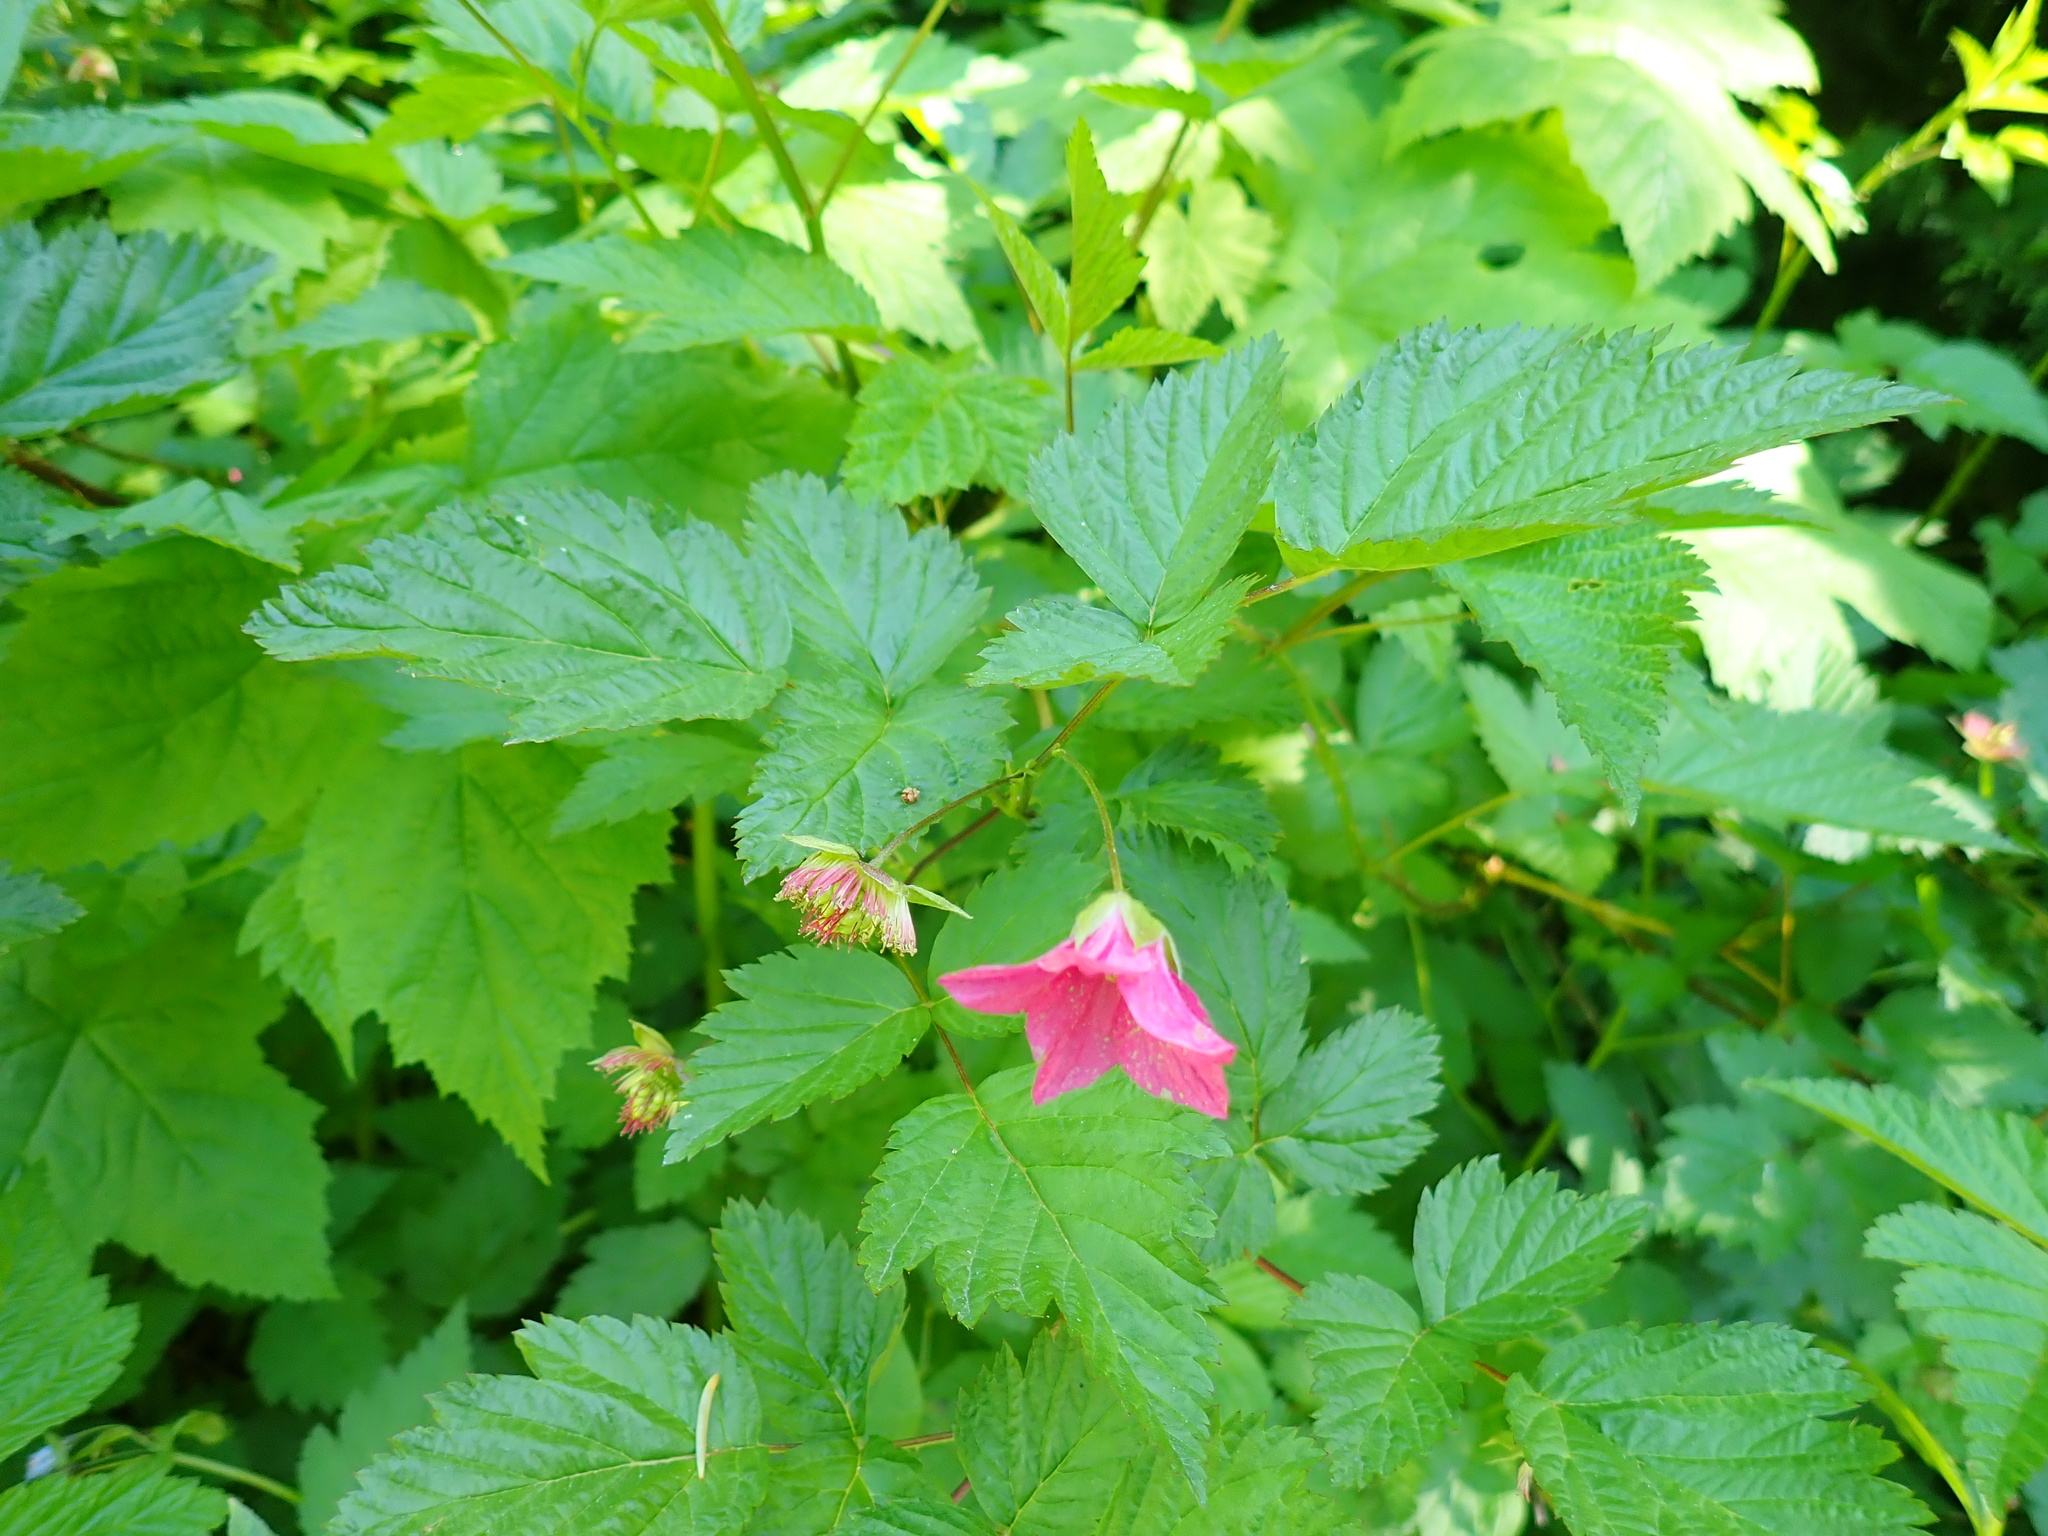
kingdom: Plantae
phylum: Tracheophyta
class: Magnoliopsida
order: Rosales
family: Rosaceae
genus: Rubus
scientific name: Rubus spectabilis
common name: Salmonberry
